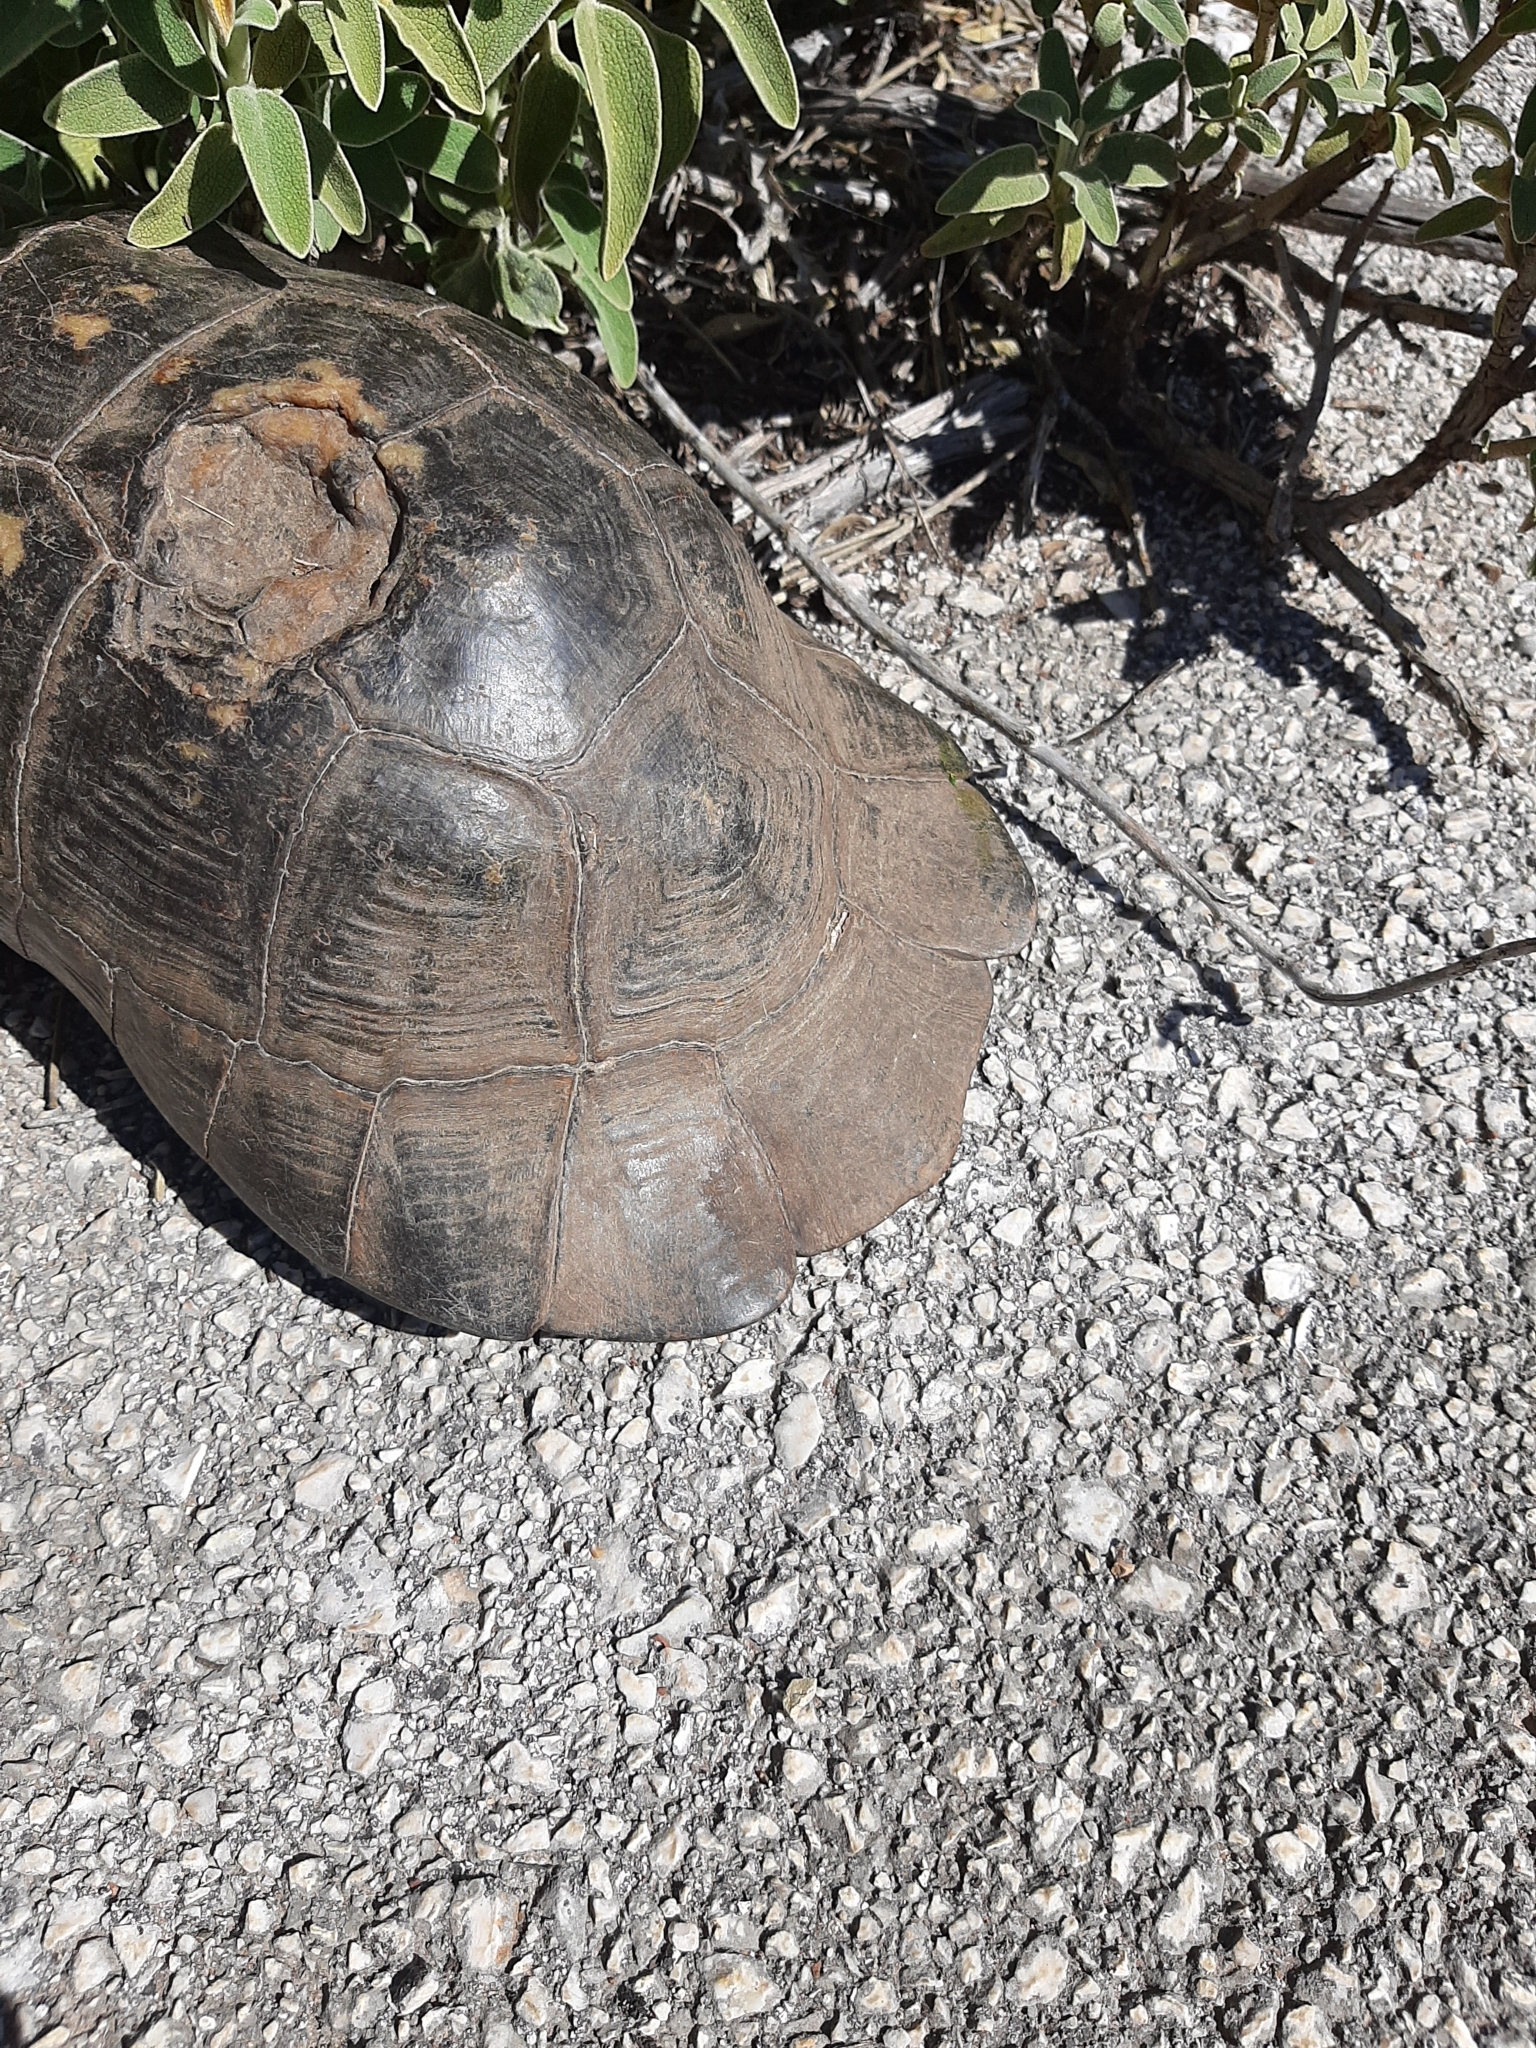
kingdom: Animalia
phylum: Chordata
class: Testudines
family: Testudinidae
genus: Testudo
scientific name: Testudo marginata
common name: Marginated tortoise
